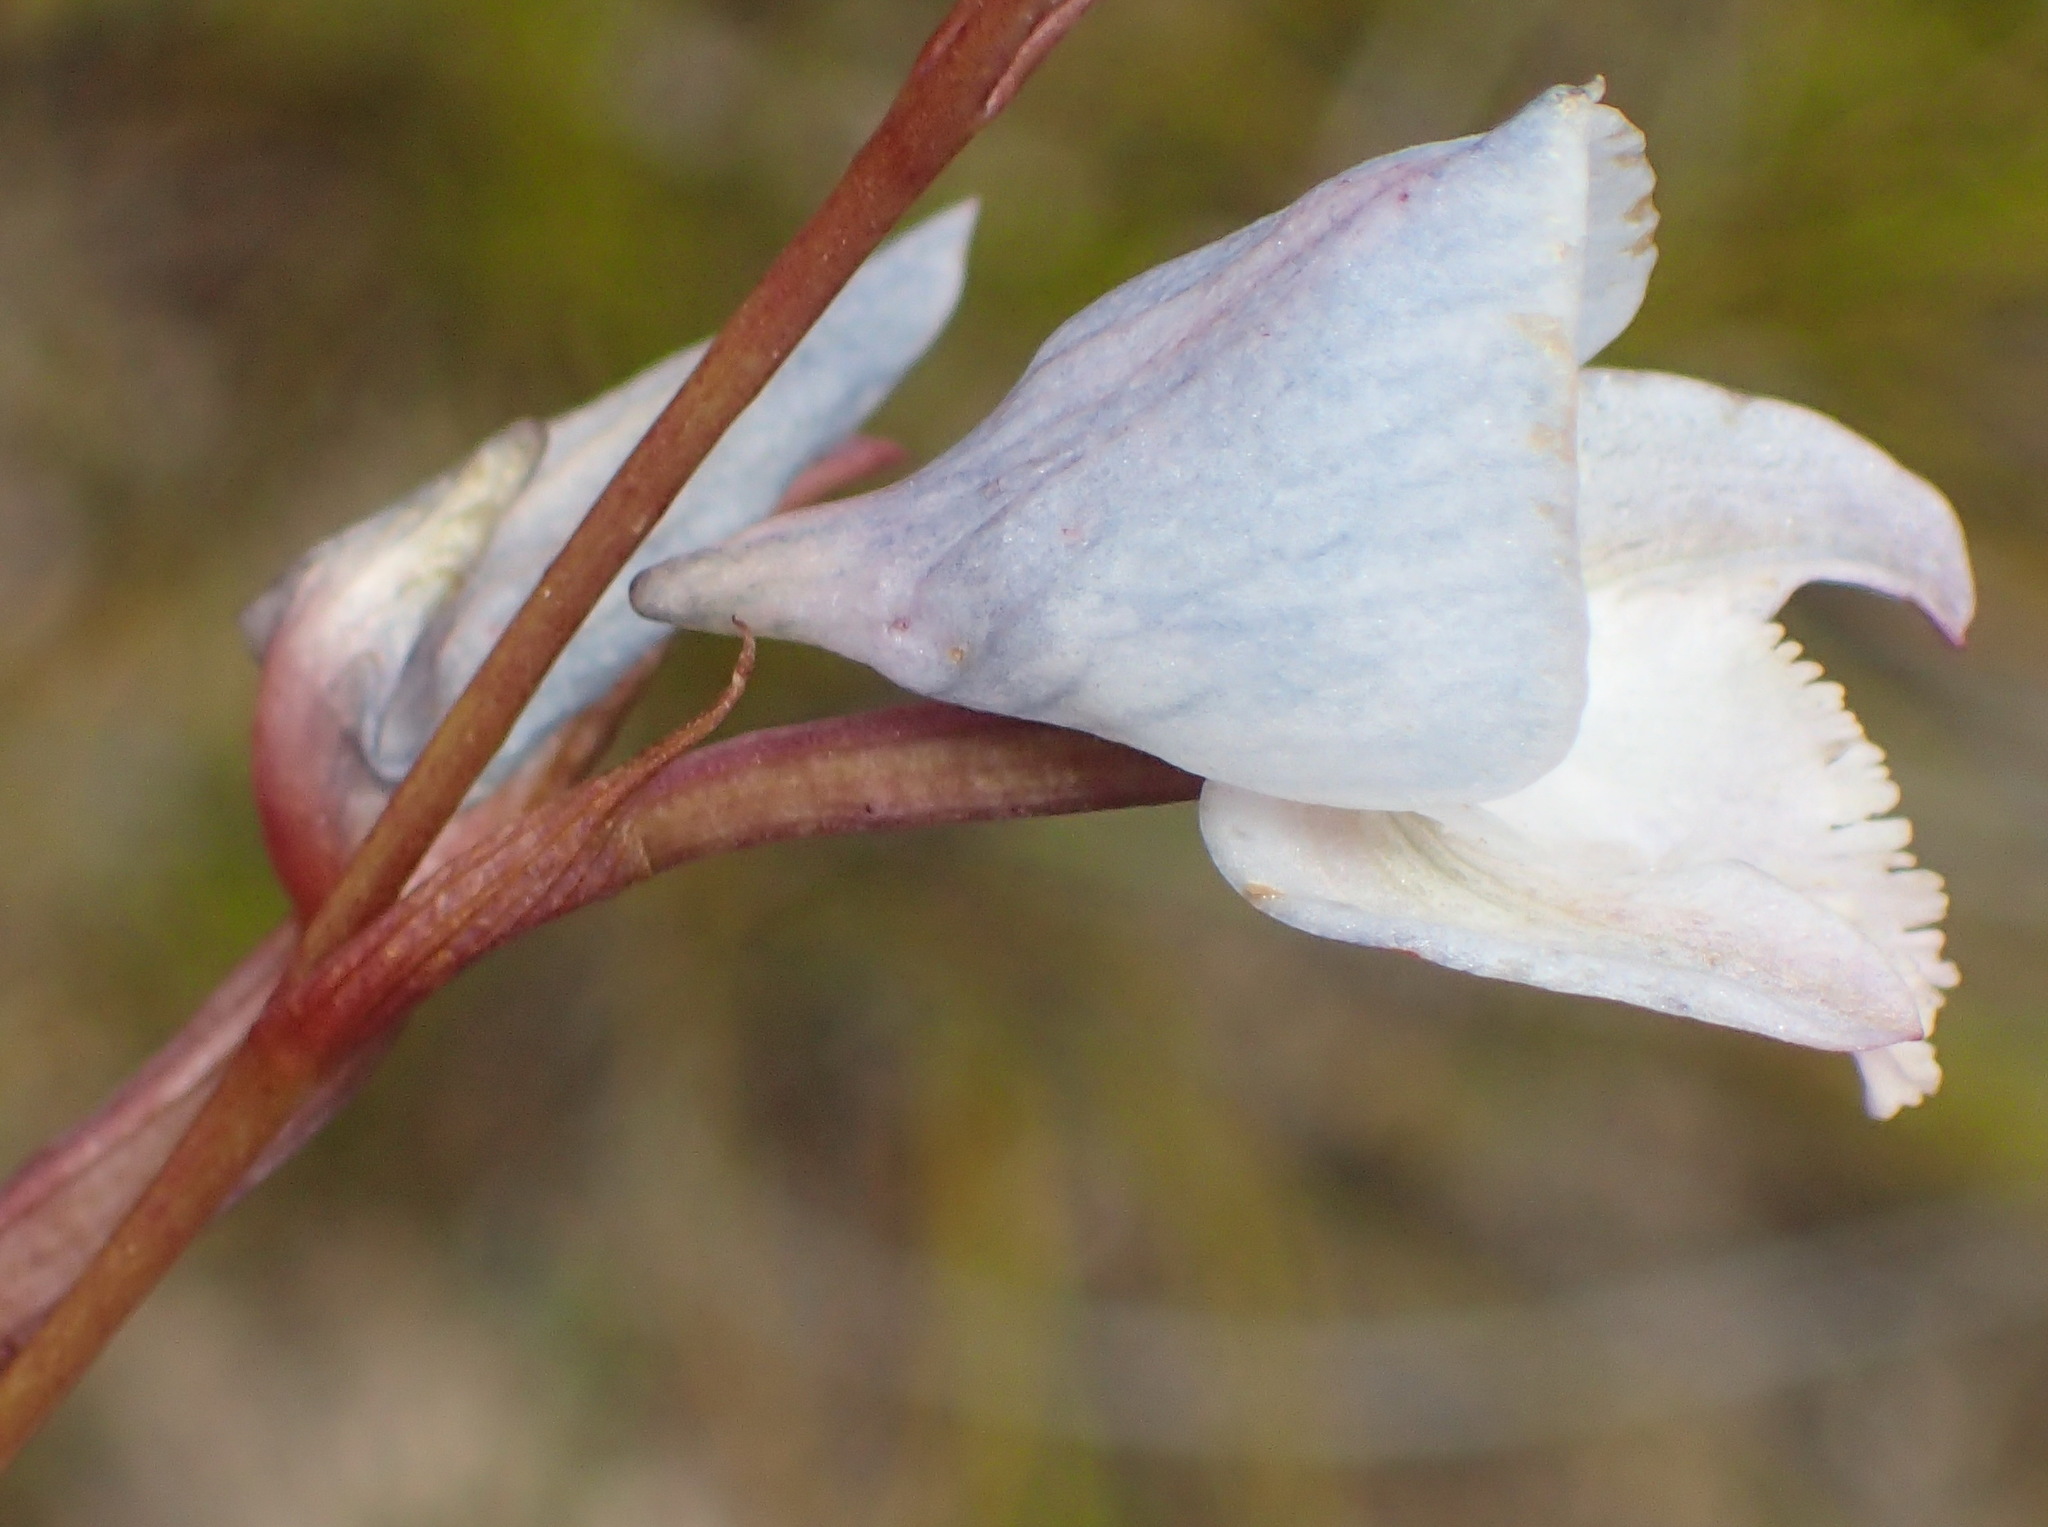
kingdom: Plantae
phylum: Tracheophyta
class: Liliopsida
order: Asparagales
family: Orchidaceae
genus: Disa
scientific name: Disa hians
